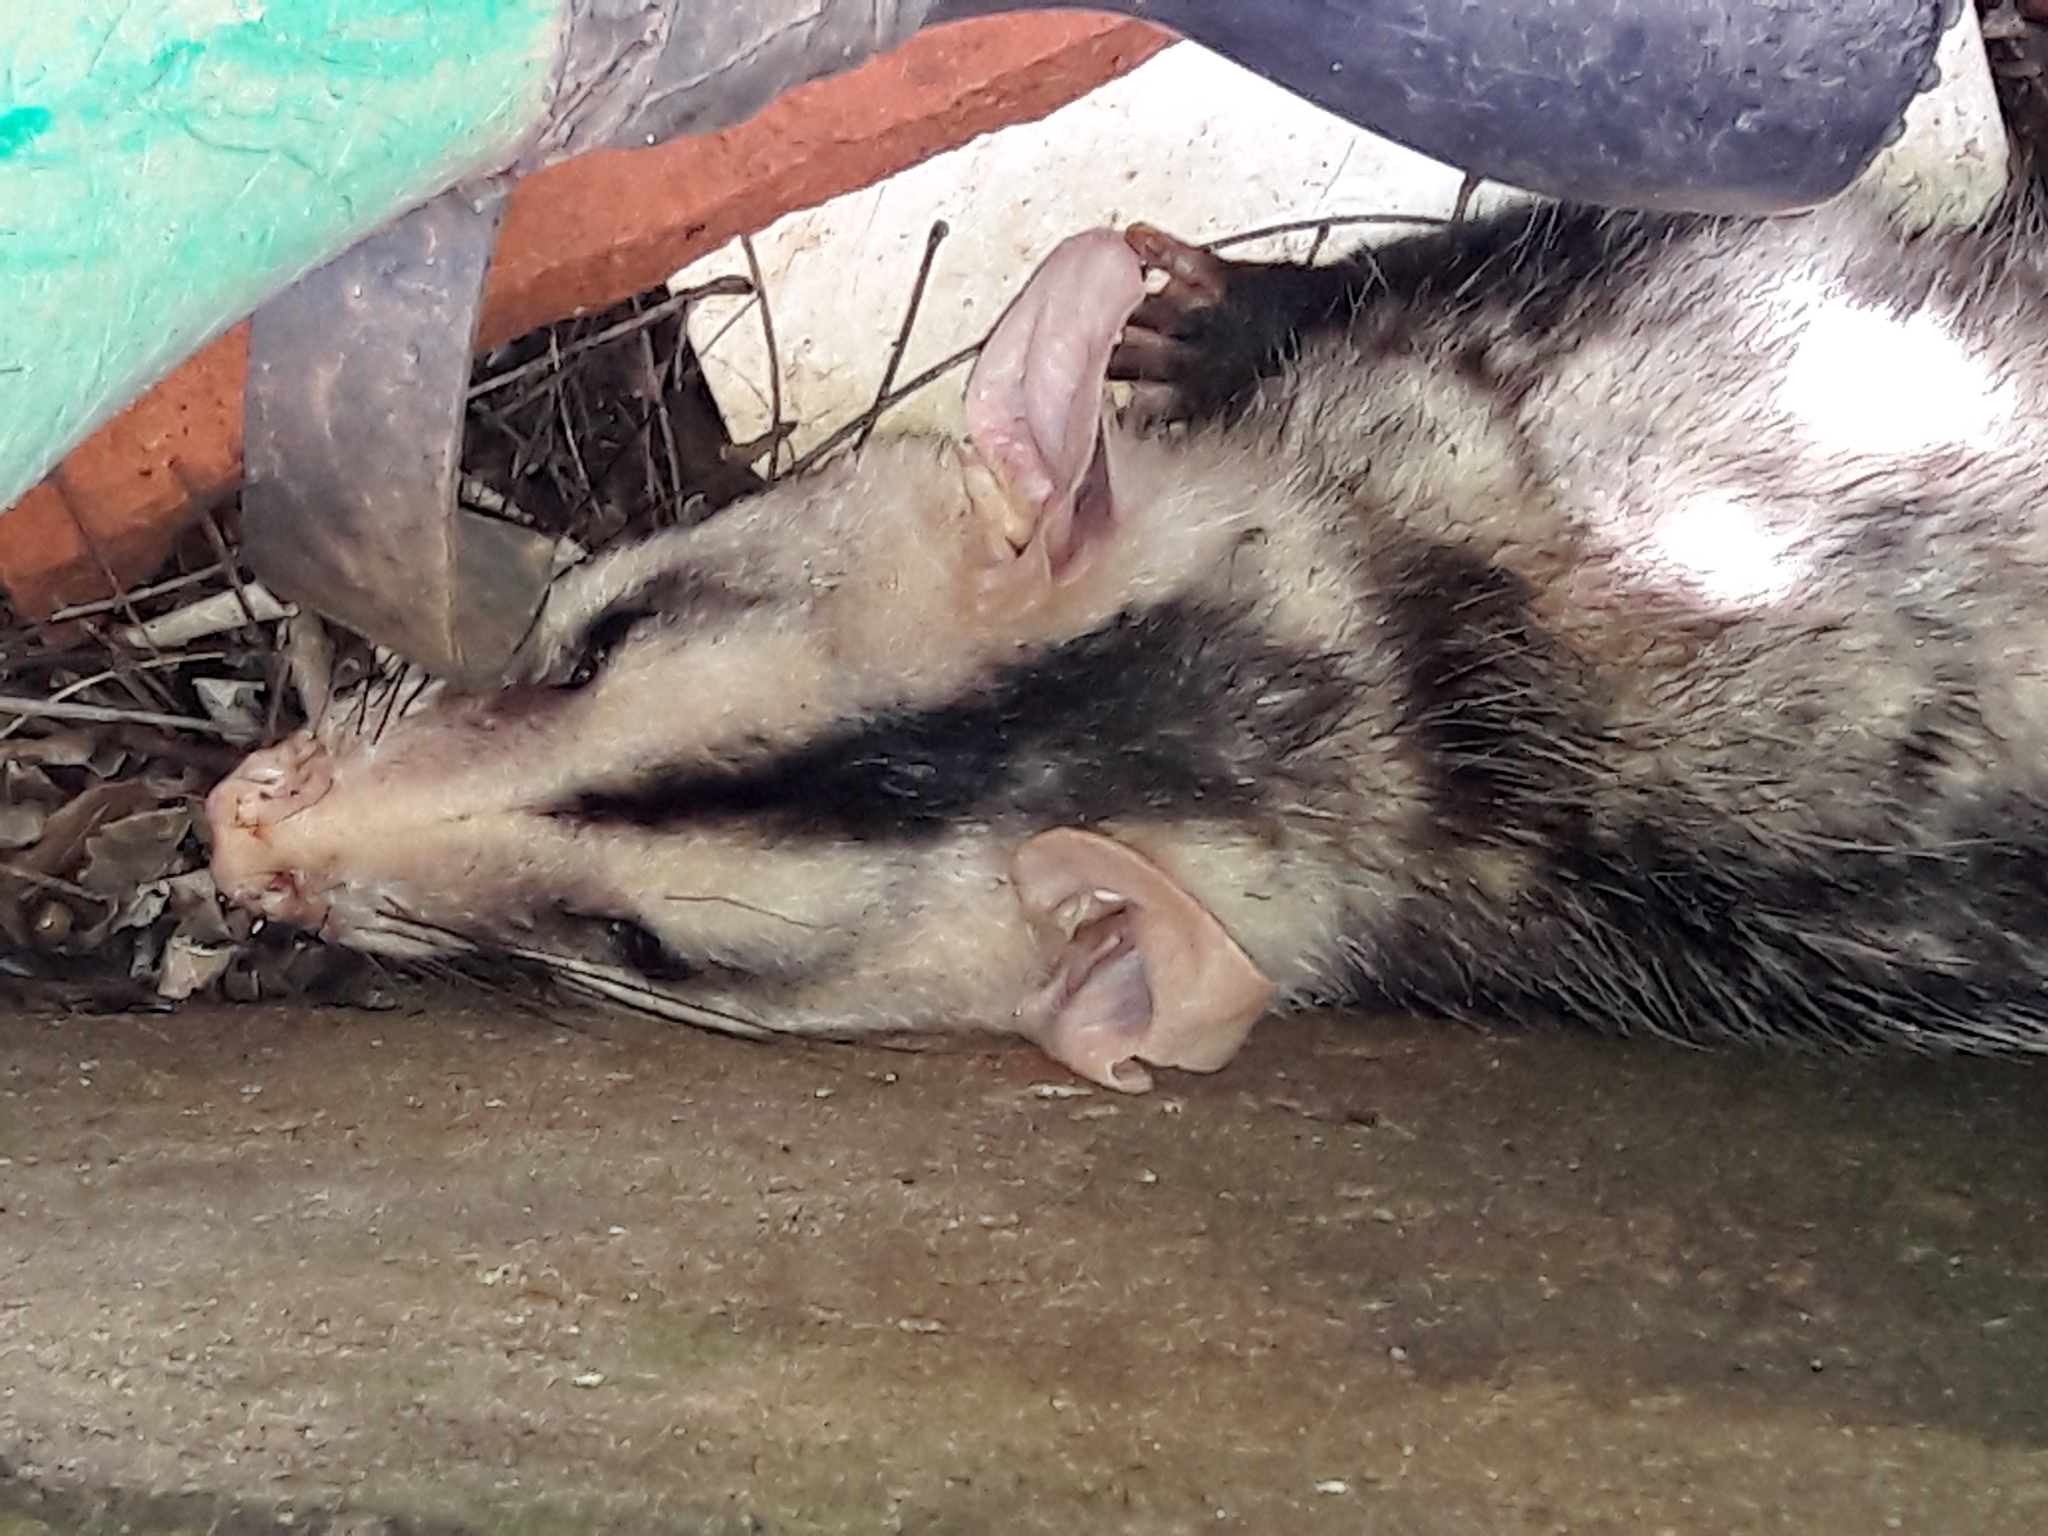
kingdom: Animalia
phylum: Chordata
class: Mammalia
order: Didelphimorphia
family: Didelphidae
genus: Didelphis
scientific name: Didelphis albiventris
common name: White-eared opossum
